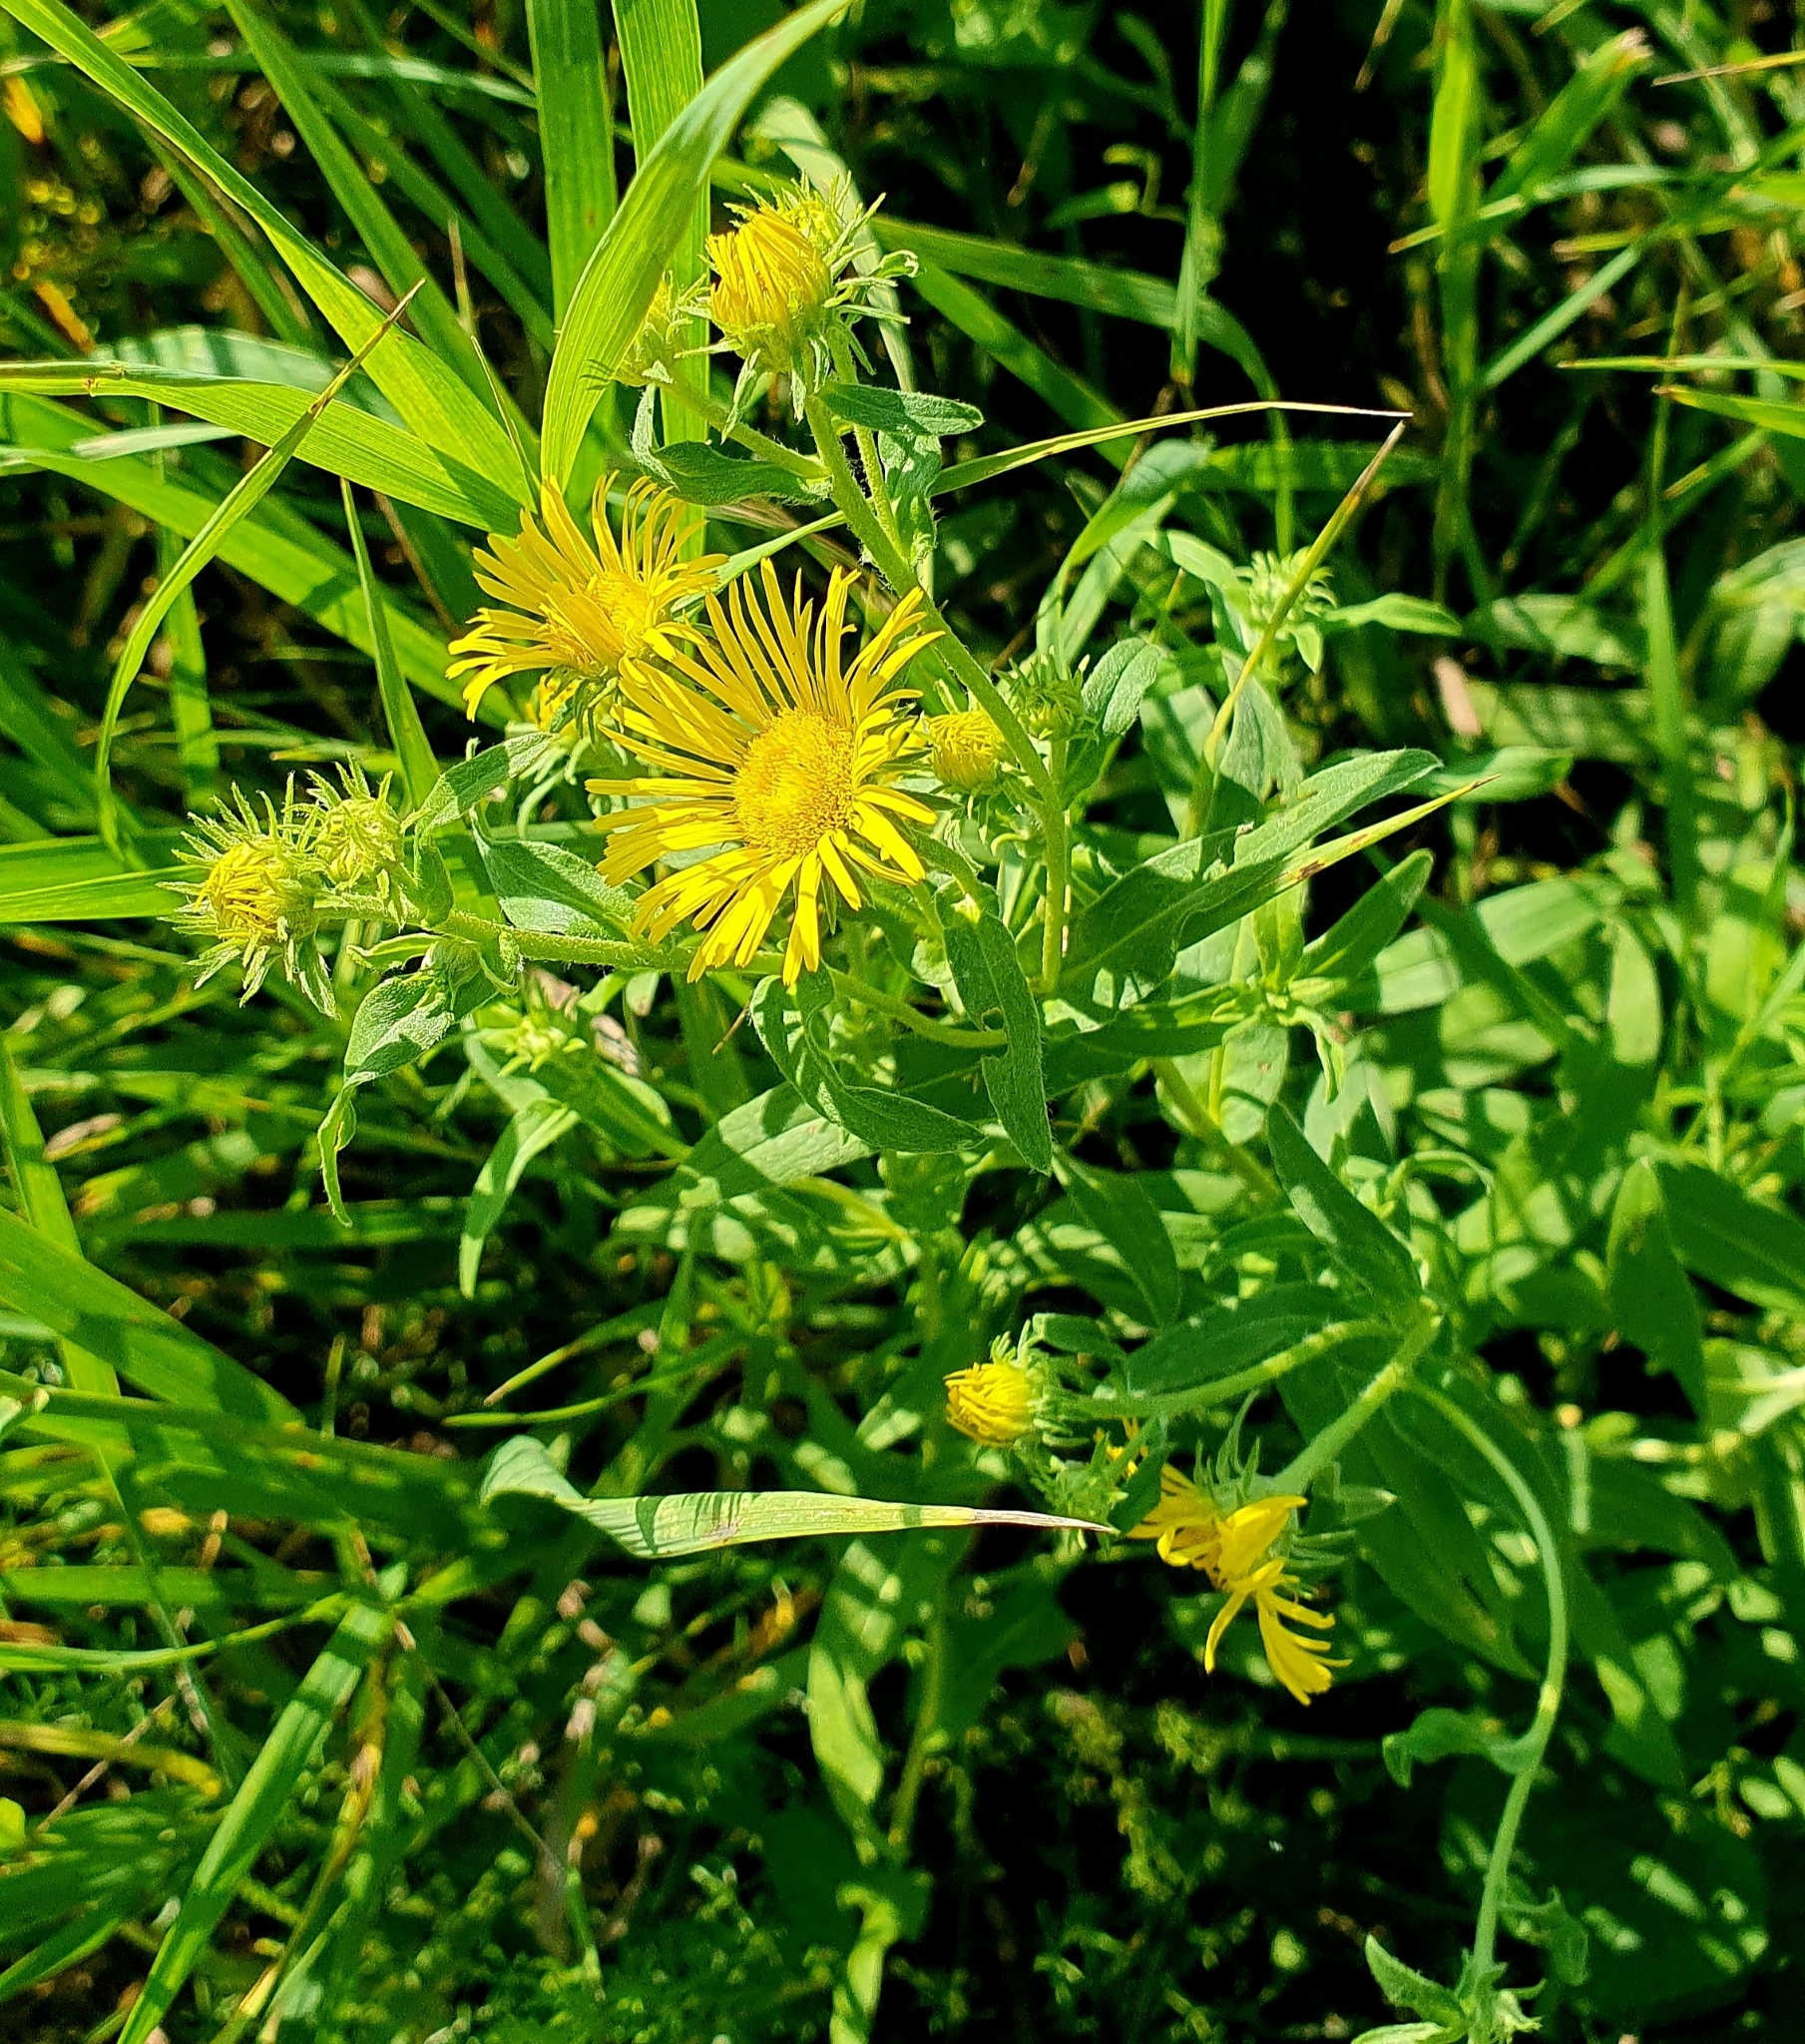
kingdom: Plantae
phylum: Tracheophyta
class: Magnoliopsida
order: Asterales
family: Asteraceae
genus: Pentanema
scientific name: Pentanema britannicum
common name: British elecampane
